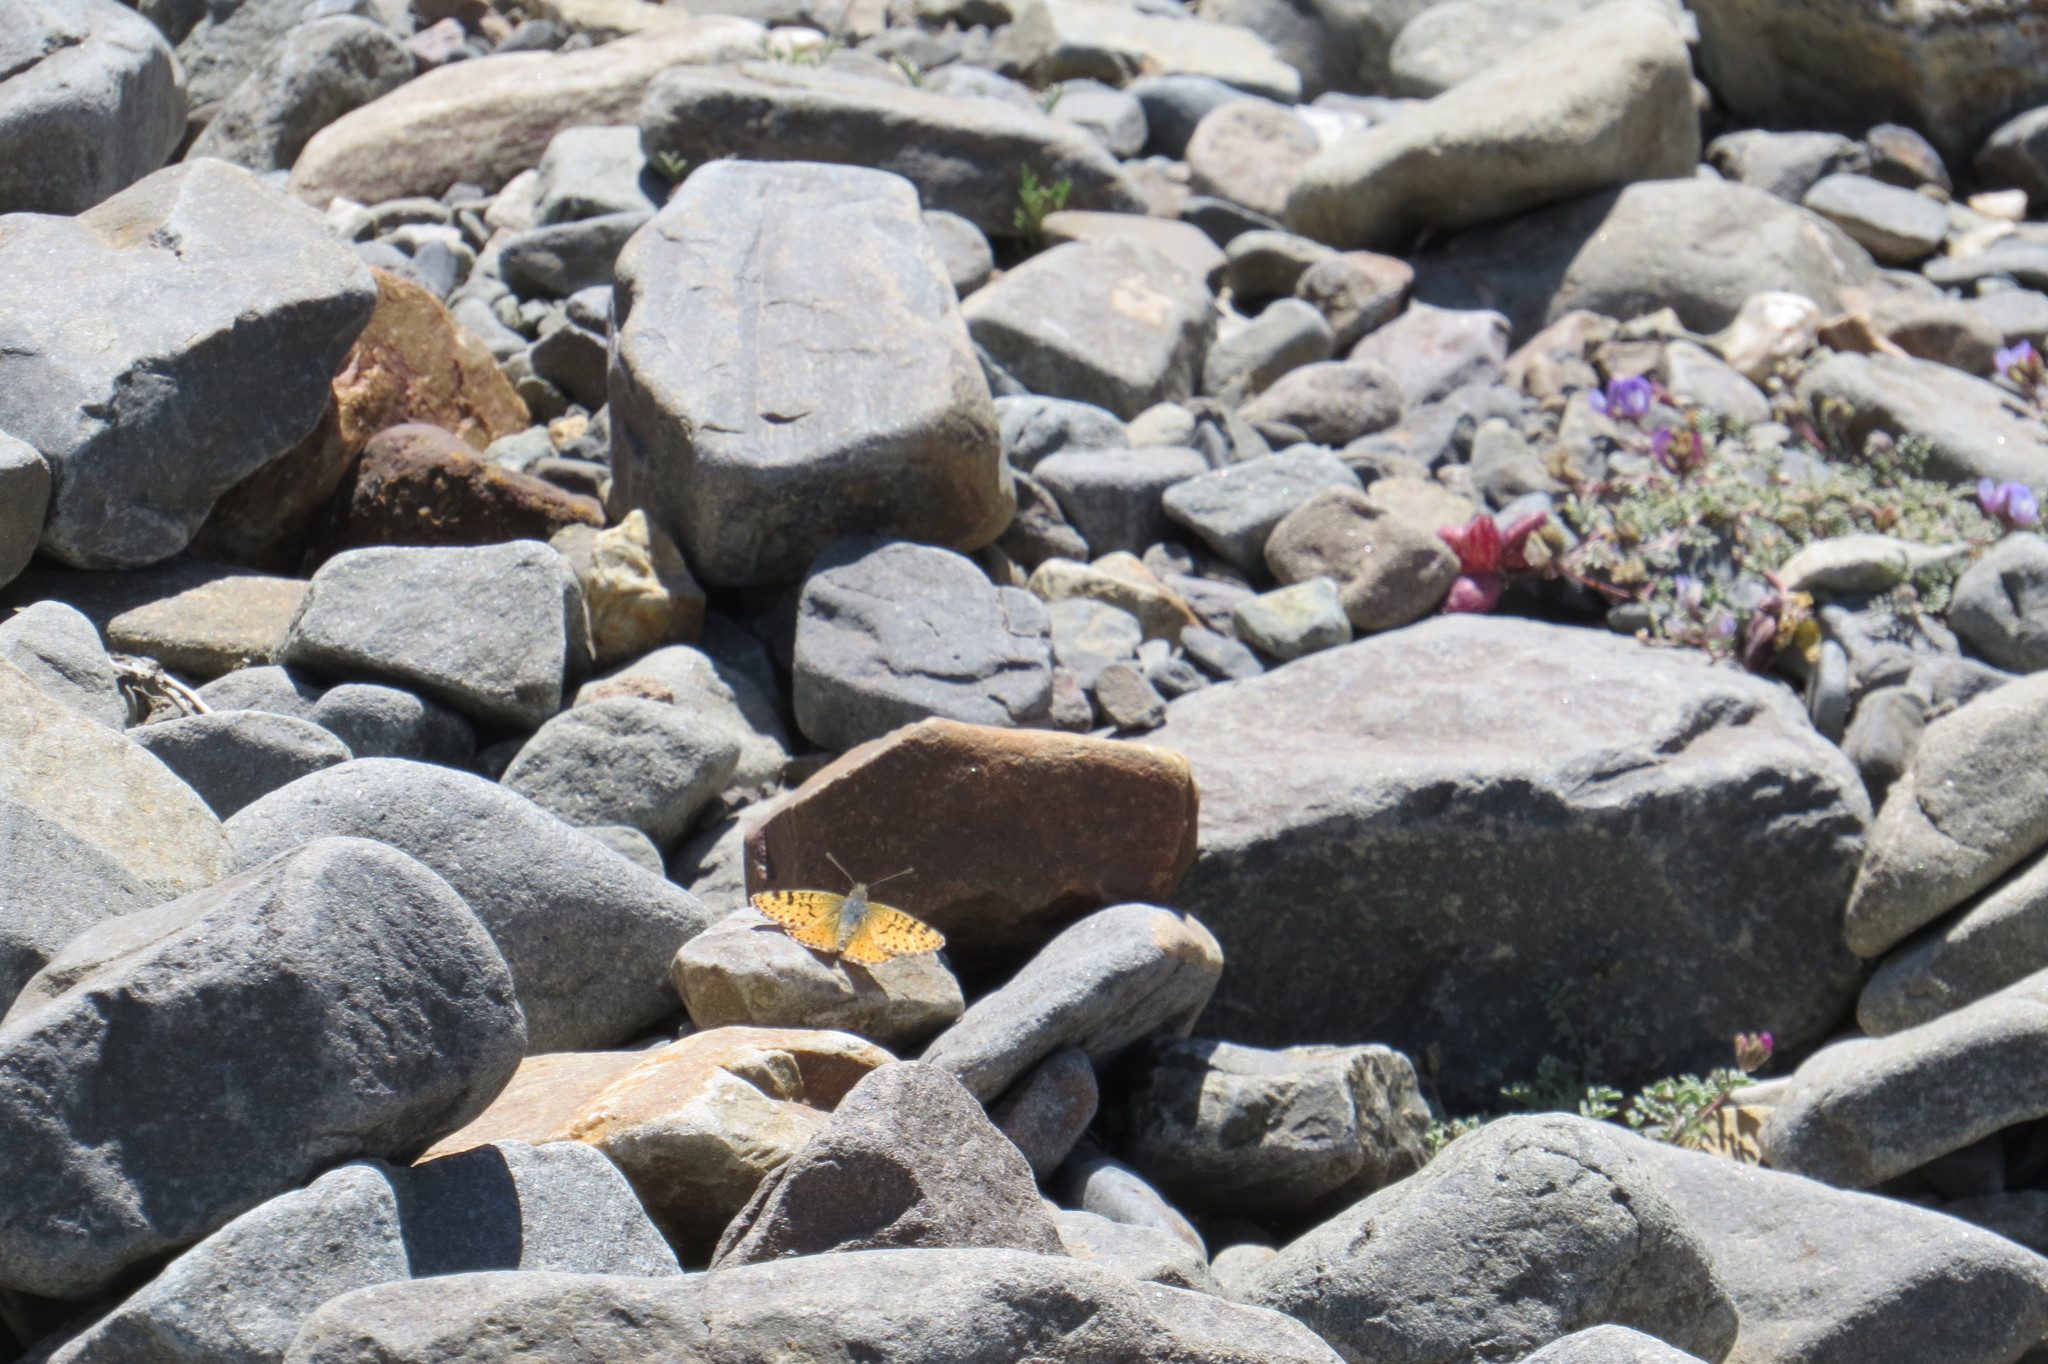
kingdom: Animalia
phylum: Arthropoda
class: Insecta
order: Lepidoptera
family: Nymphalidae
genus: Issoria
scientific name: Issoria
